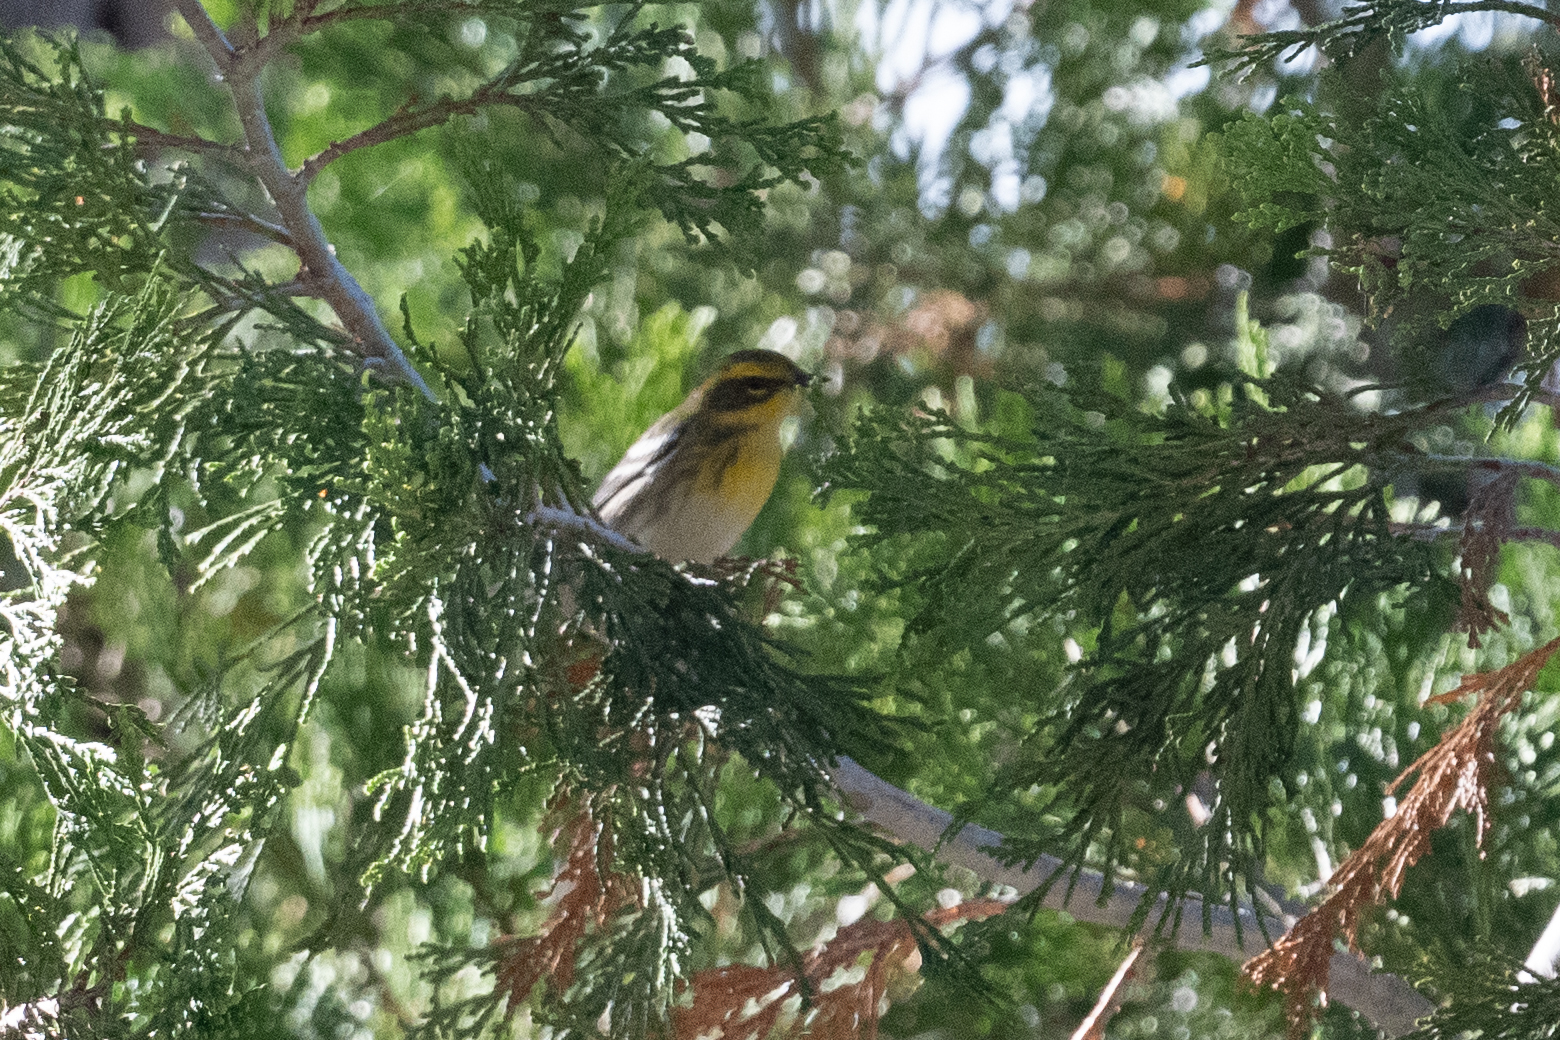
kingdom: Animalia
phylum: Chordata
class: Aves
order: Passeriformes
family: Parulidae
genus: Setophaga
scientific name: Setophaga townsendi
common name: Townsend's warbler
